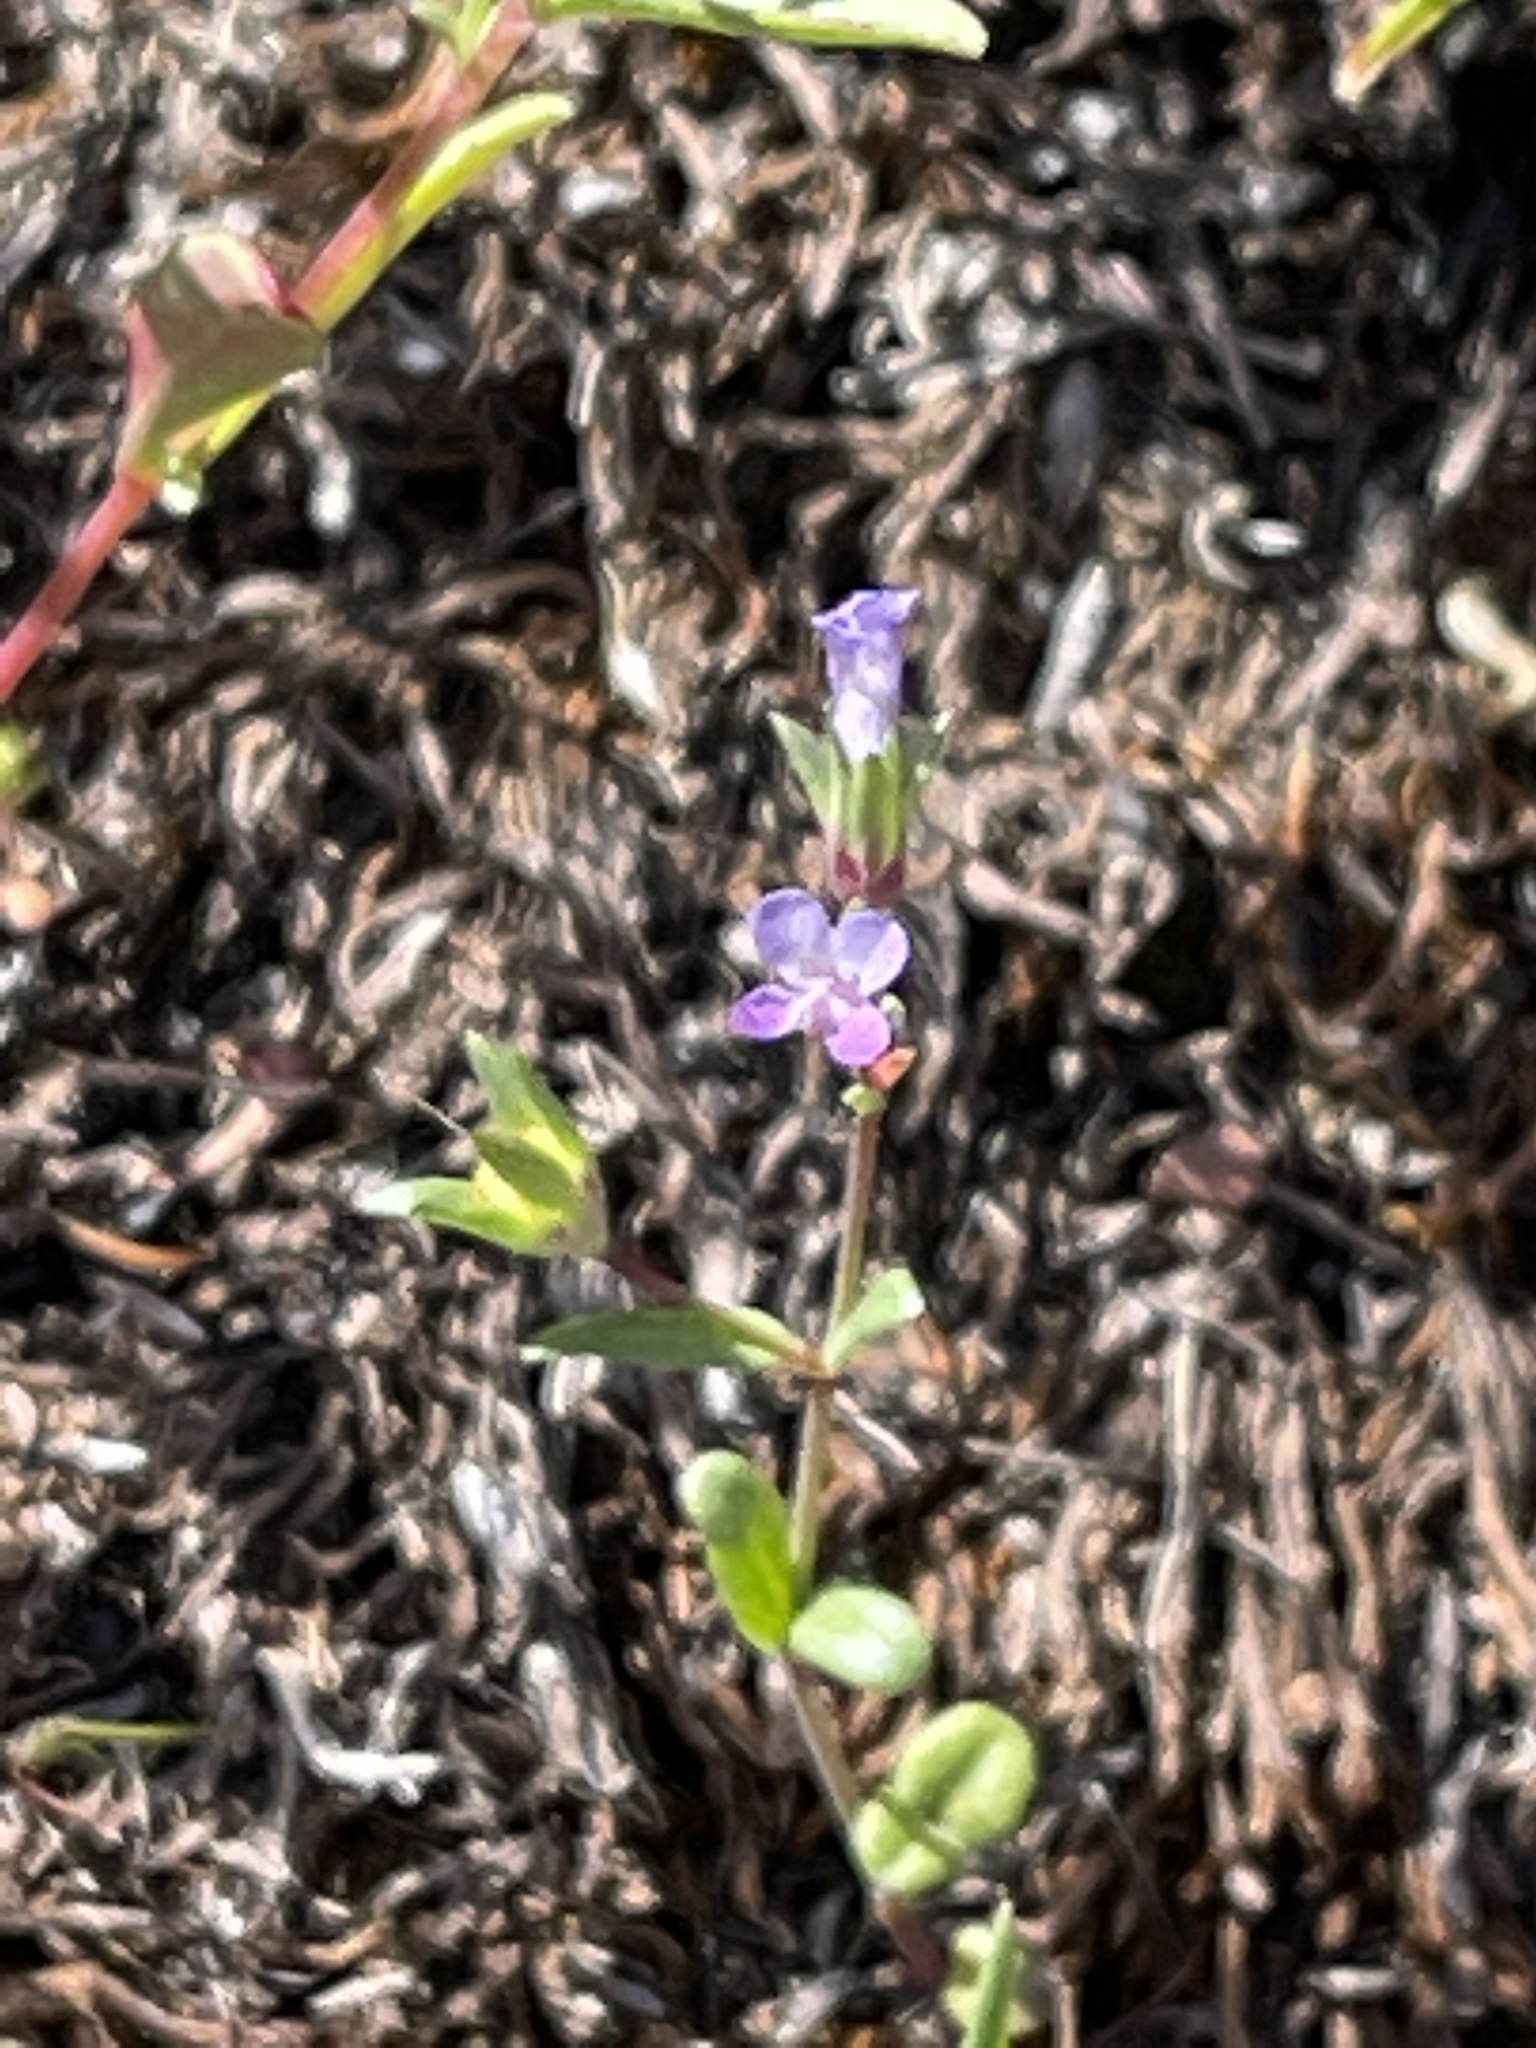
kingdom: Plantae
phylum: Tracheophyta
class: Magnoliopsida
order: Lamiales
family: Plantaginaceae
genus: Collinsia
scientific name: Collinsia sparsiflora
